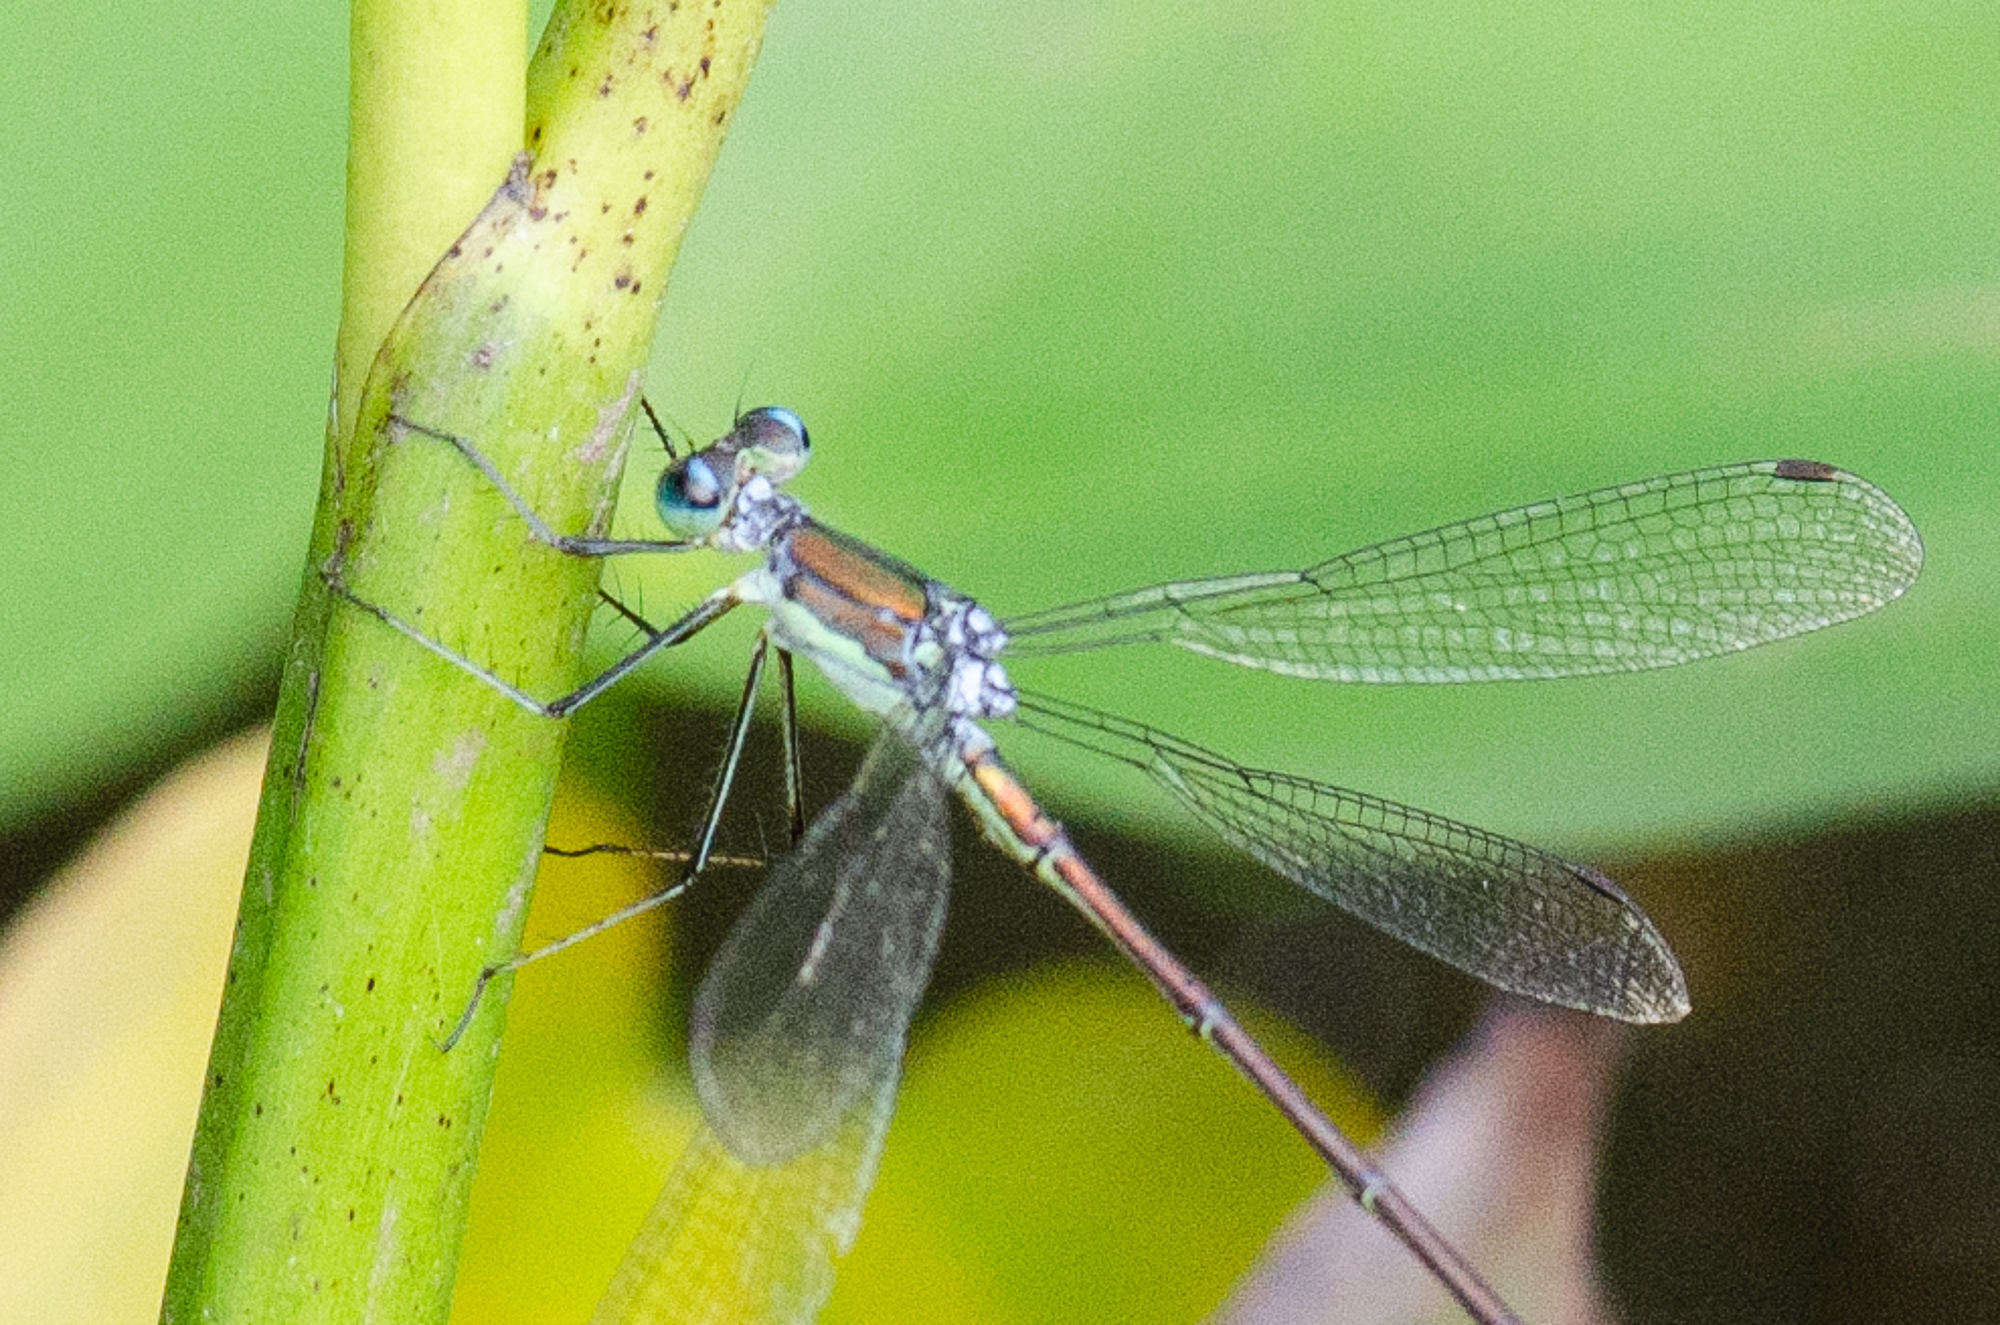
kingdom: Animalia
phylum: Arthropoda
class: Insecta
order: Odonata
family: Lestidae
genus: Lestes
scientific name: Lestes inaequalis
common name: Elegant spreadwing
